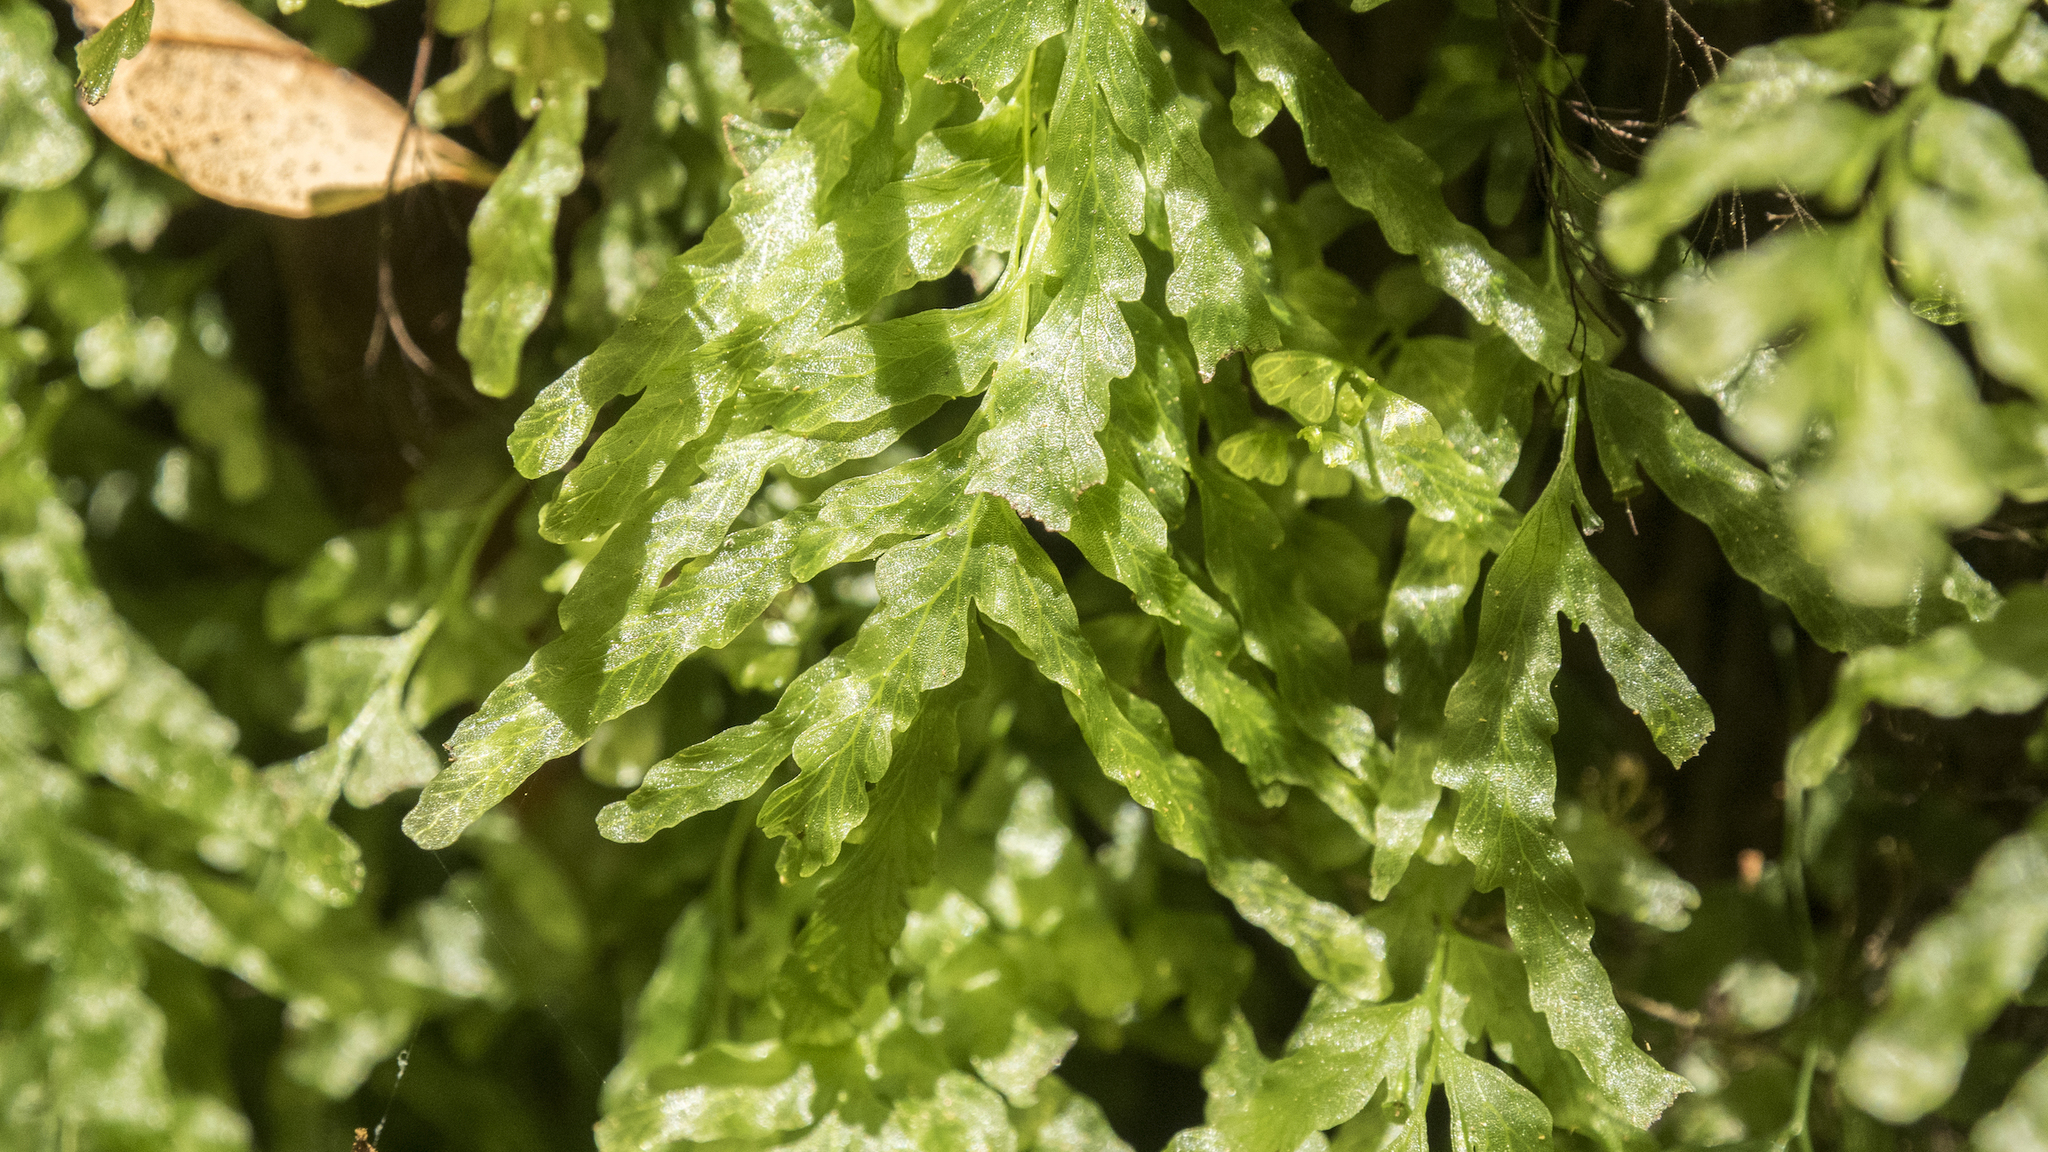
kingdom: Plantae
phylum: Tracheophyta
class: Polypodiopsida
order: Hymenophyllales
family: Hymenophyllaceae
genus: Polyphlebium
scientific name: Polyphlebium venosum
